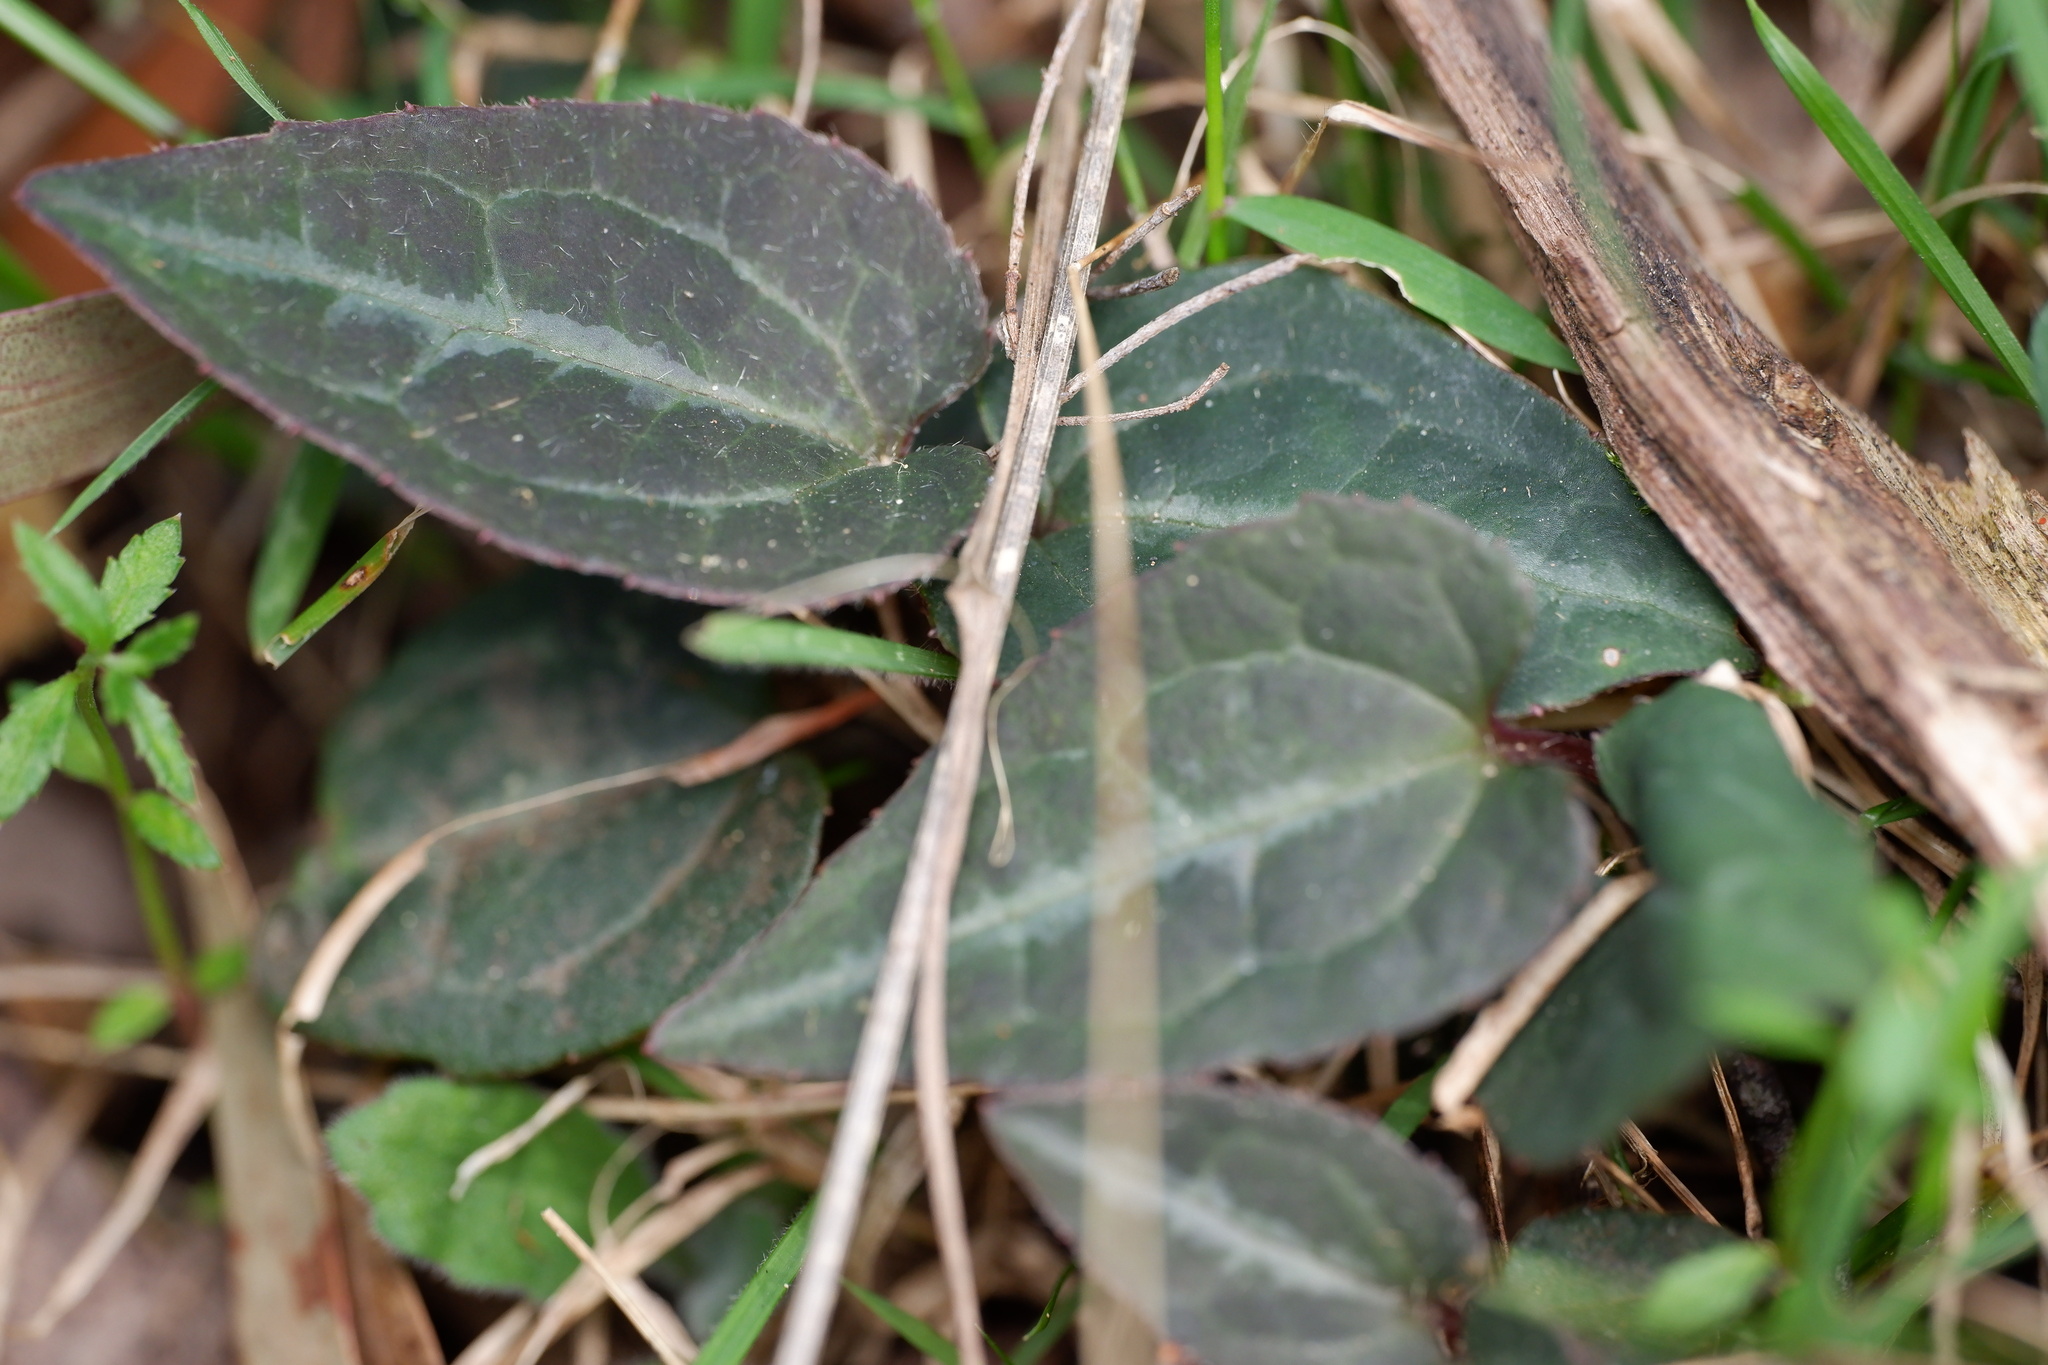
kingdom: Plantae
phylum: Tracheophyta
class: Magnoliopsida
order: Ranunculales
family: Ranunculaceae
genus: Clematis
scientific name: Clematis aristata
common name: Mountain clematis
